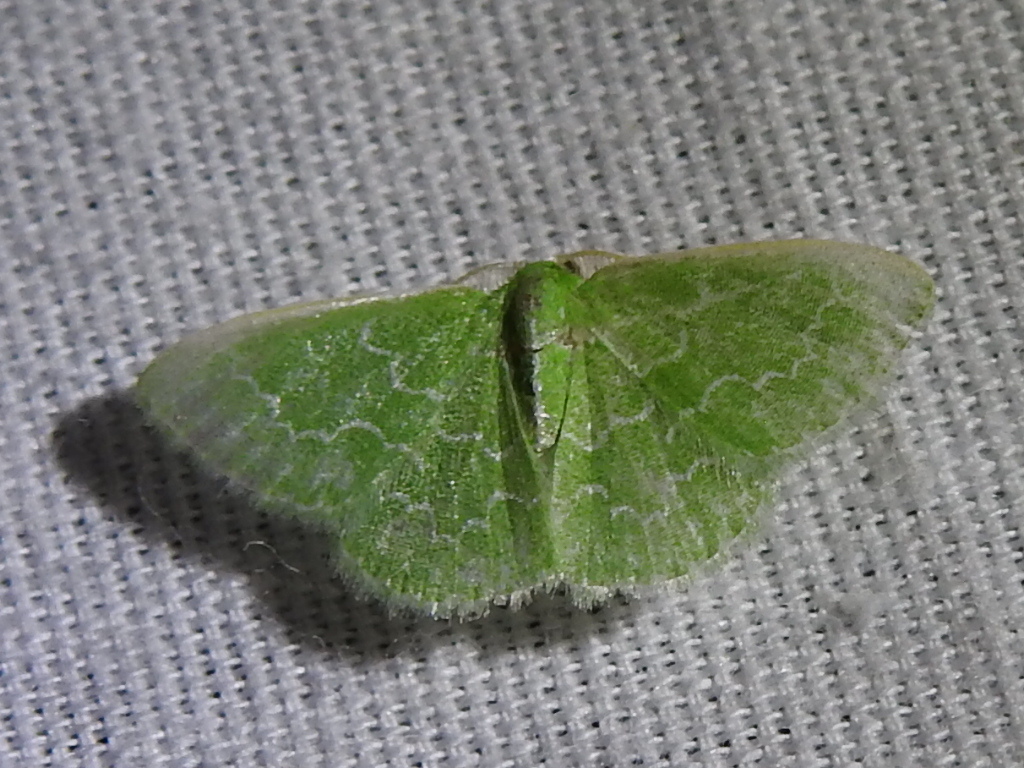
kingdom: Animalia
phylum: Arthropoda
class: Insecta
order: Lepidoptera
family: Geometridae
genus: Synchlora
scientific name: Synchlora frondaria
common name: Southern emerald
